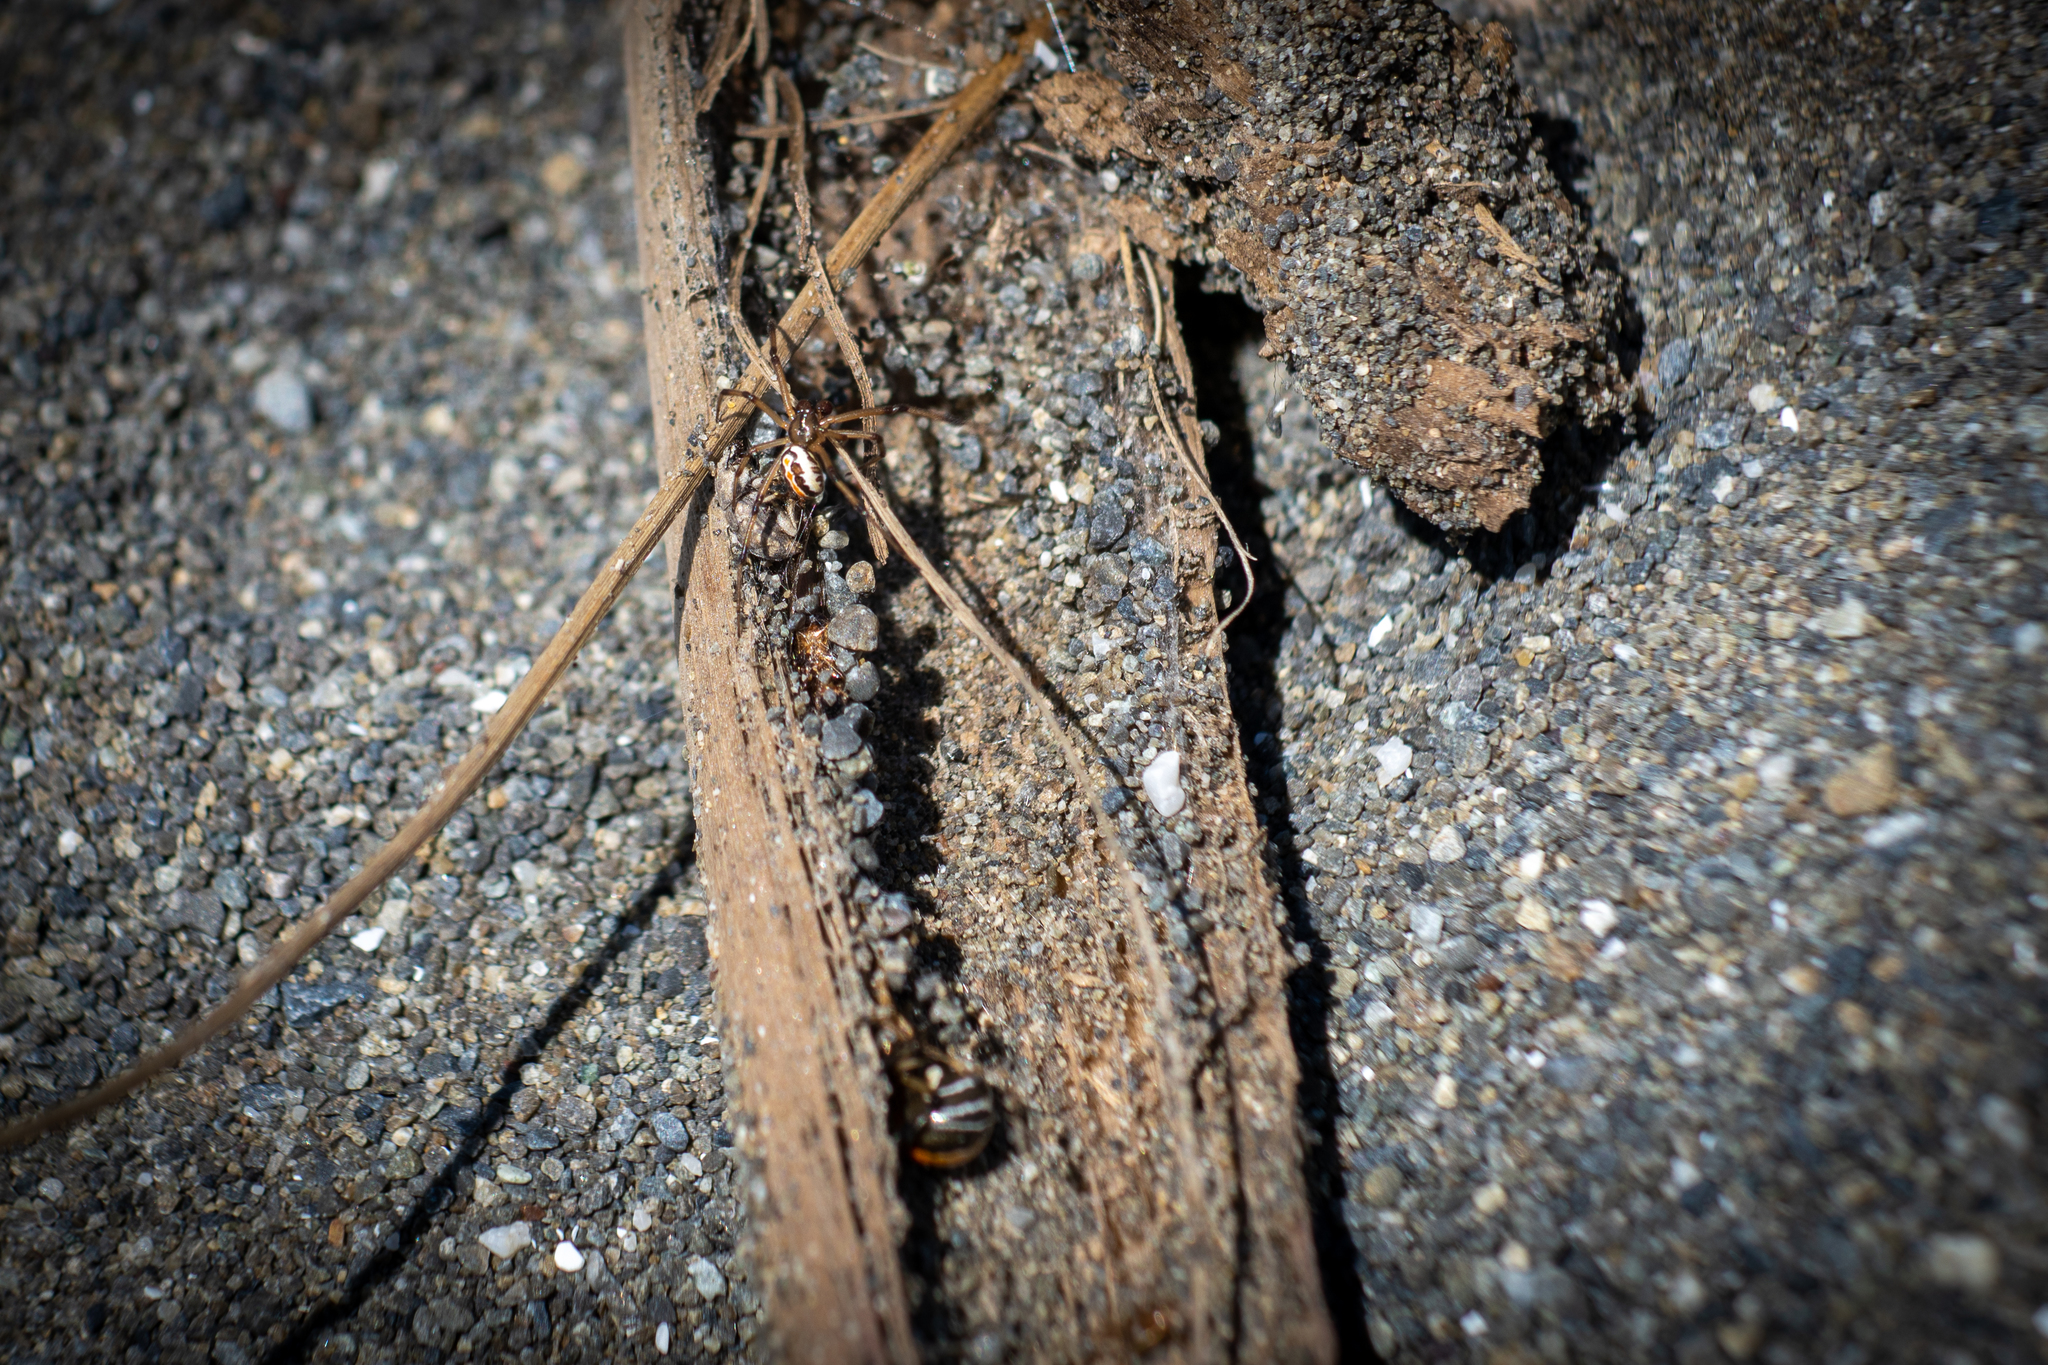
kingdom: Animalia
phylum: Arthropoda
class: Arachnida
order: Araneae
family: Theridiidae
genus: Latrodectus
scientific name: Latrodectus katipo
